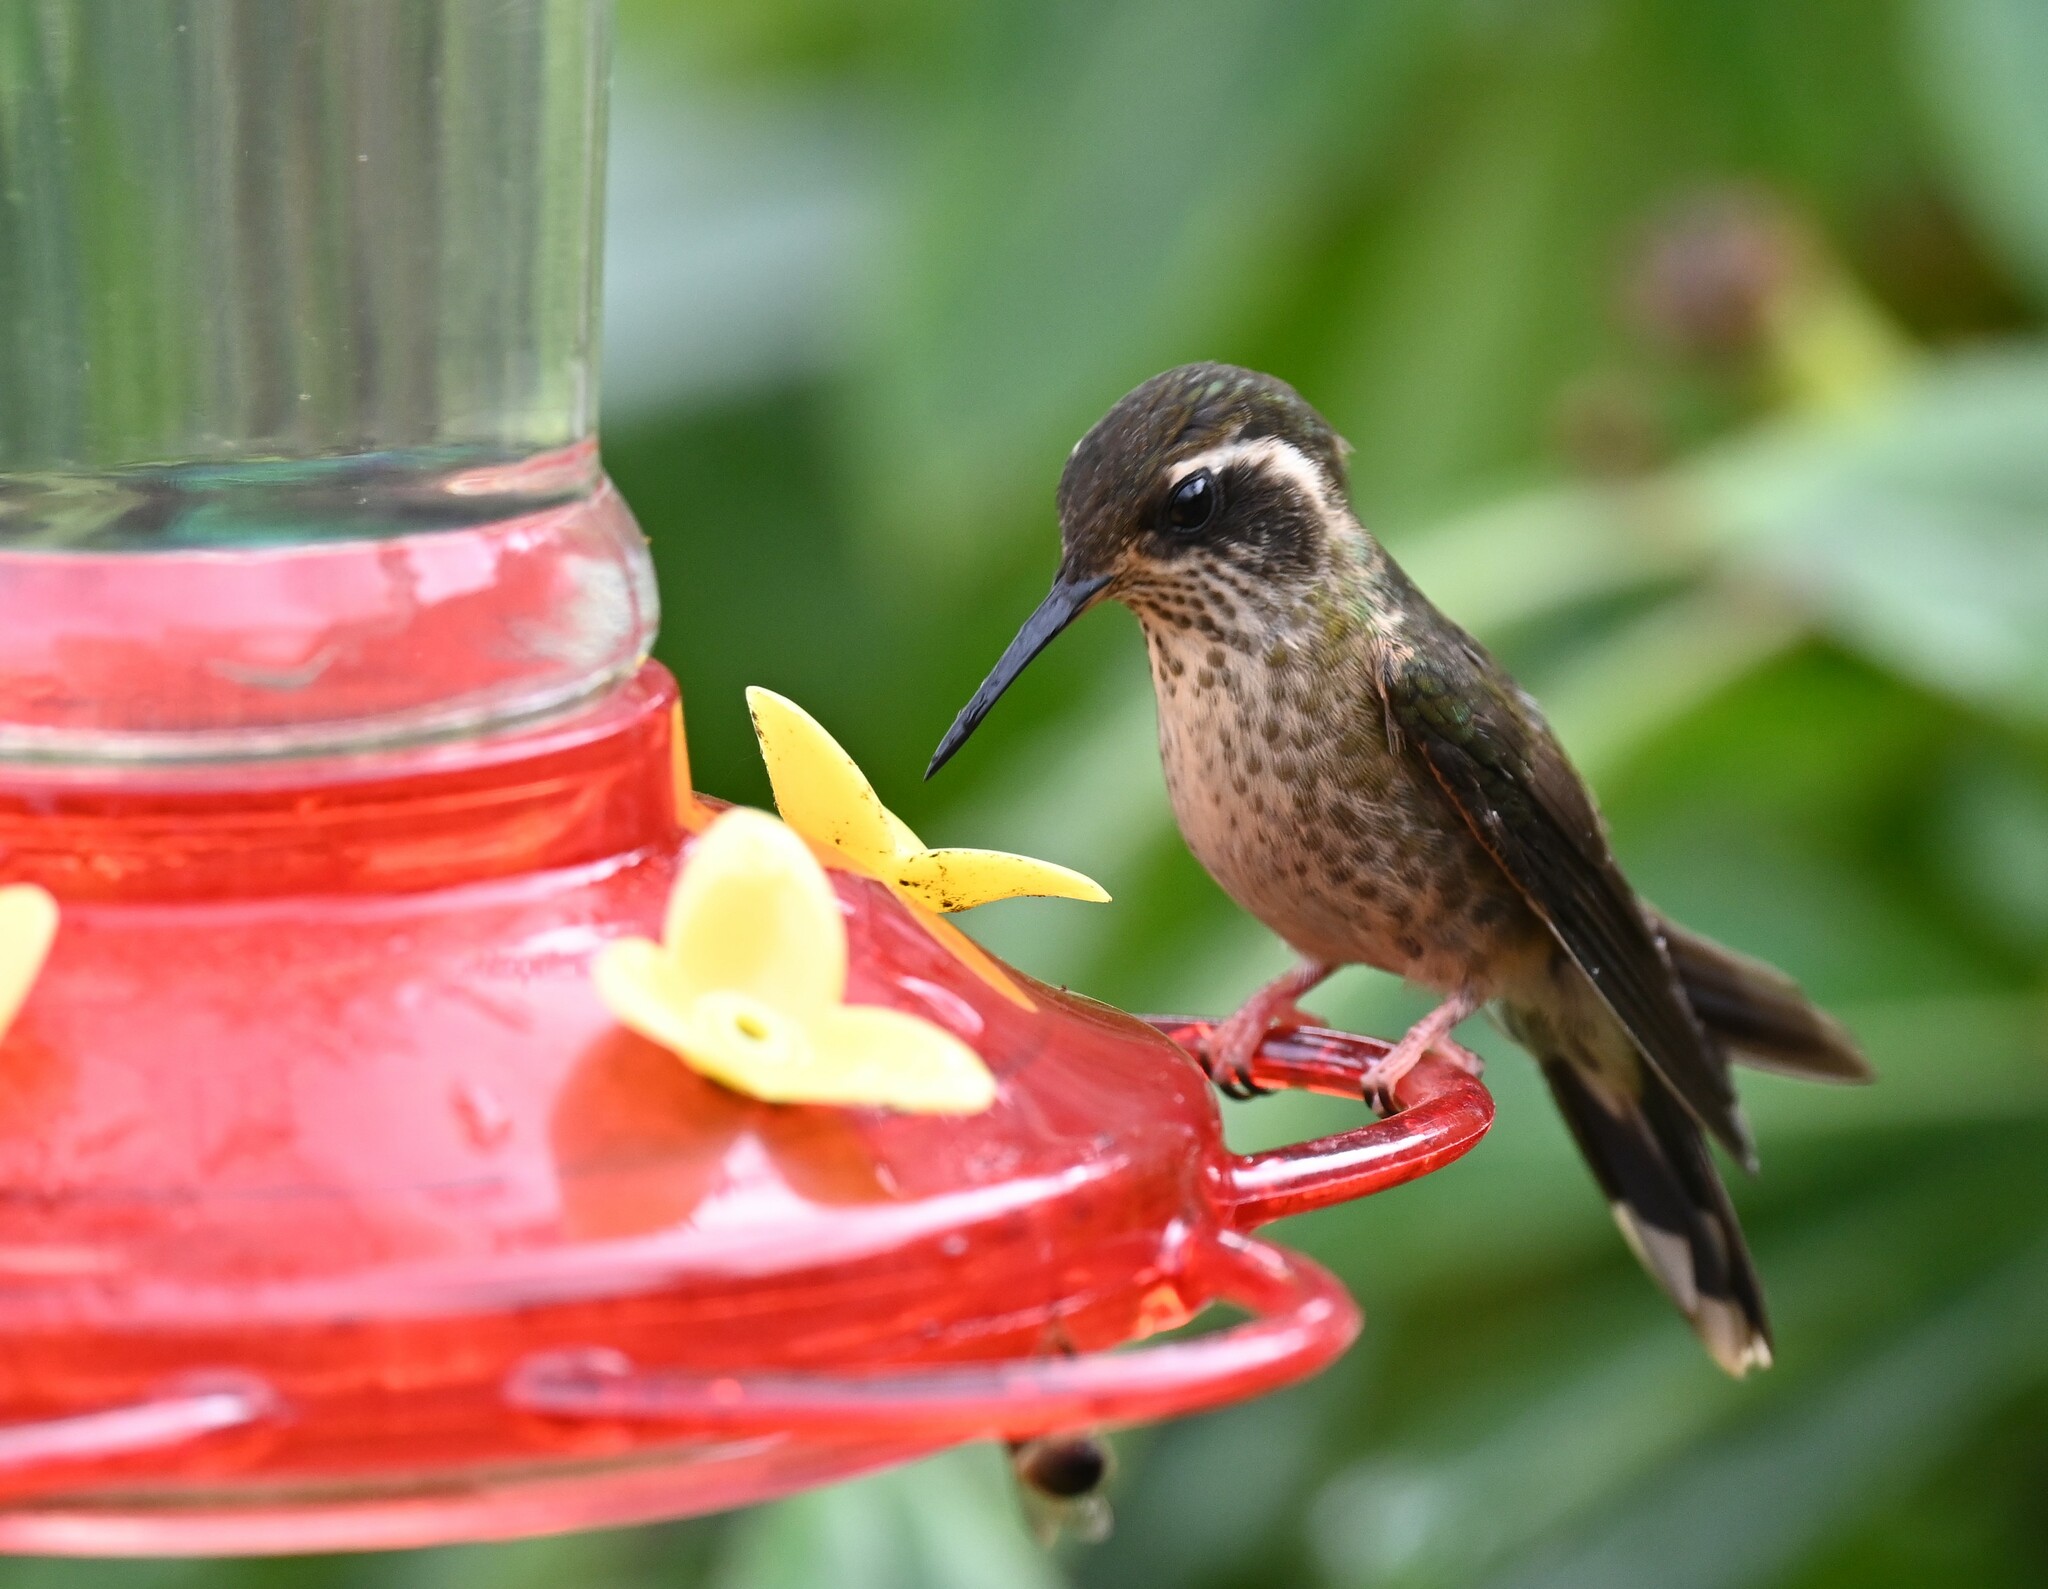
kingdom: Animalia
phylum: Chordata
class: Aves
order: Apodiformes
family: Trochilidae
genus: Adelomyia
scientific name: Adelomyia melanogenys
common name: Speckled hummingbird
